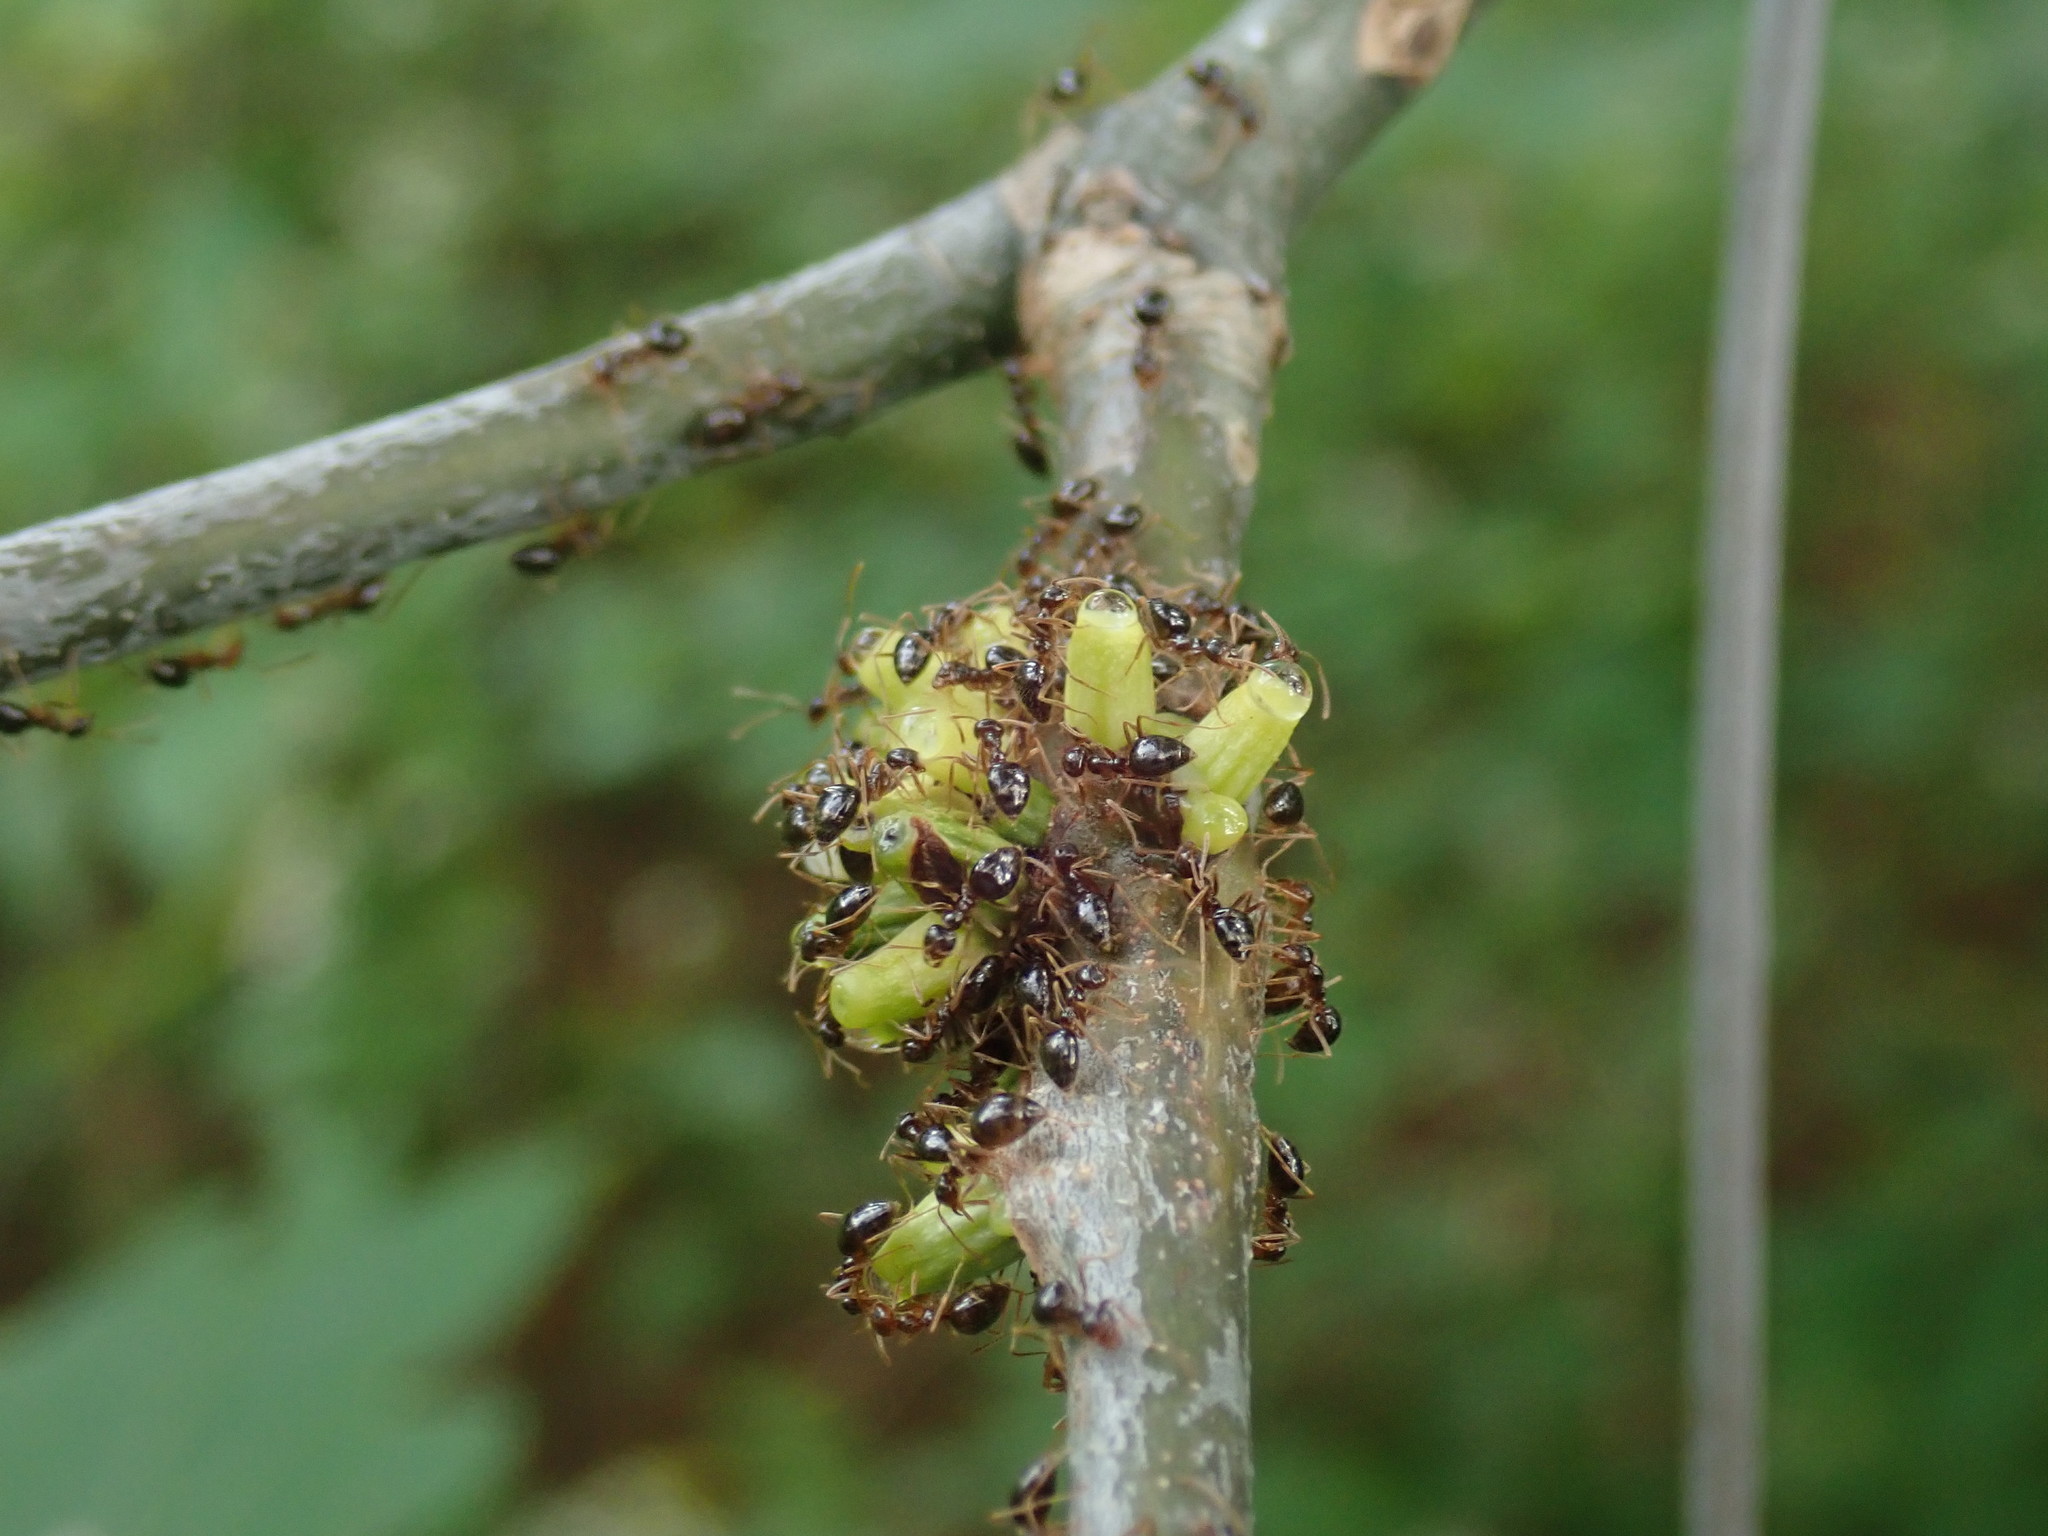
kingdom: Animalia
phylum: Arthropoda
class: Insecta
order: Hymenoptera
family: Cynipidae
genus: Callirhytis
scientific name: Callirhytis
